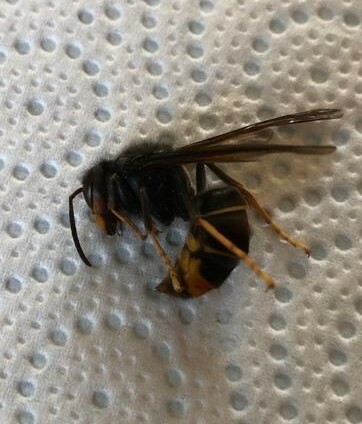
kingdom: Animalia
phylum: Arthropoda
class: Insecta
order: Hymenoptera
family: Vespidae
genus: Vespa
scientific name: Vespa velutina
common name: Asian hornet
